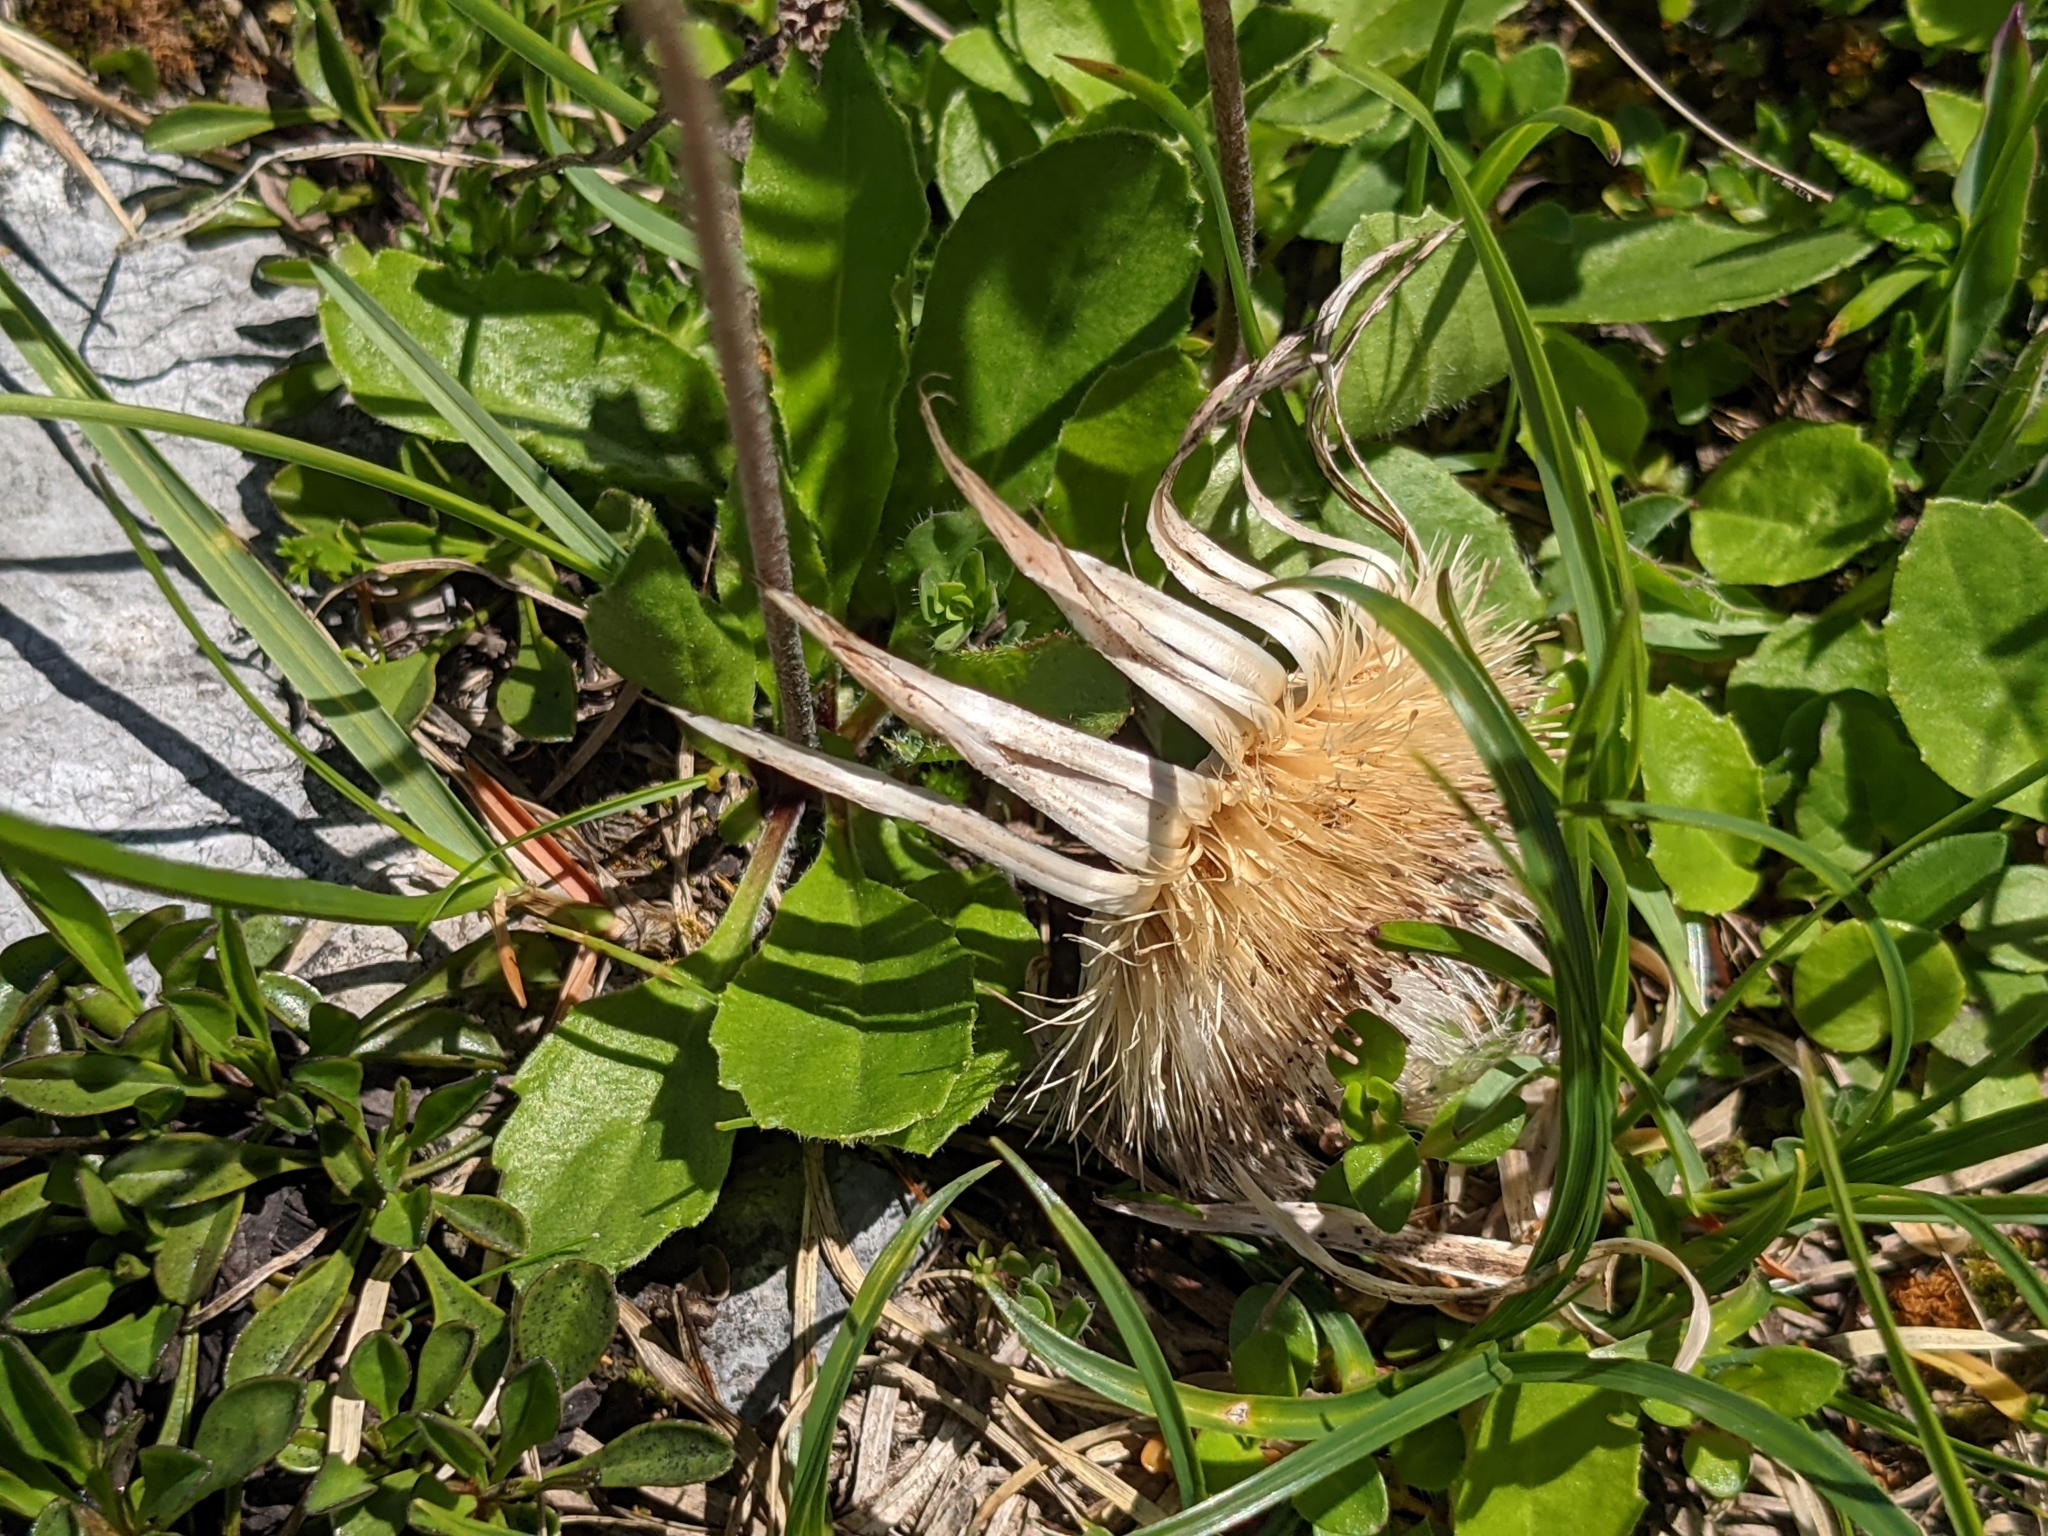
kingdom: Plantae
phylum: Tracheophyta
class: Magnoliopsida
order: Asterales
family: Asteraceae
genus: Carlina
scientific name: Carlina acaulis
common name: Stemless carline thistle
